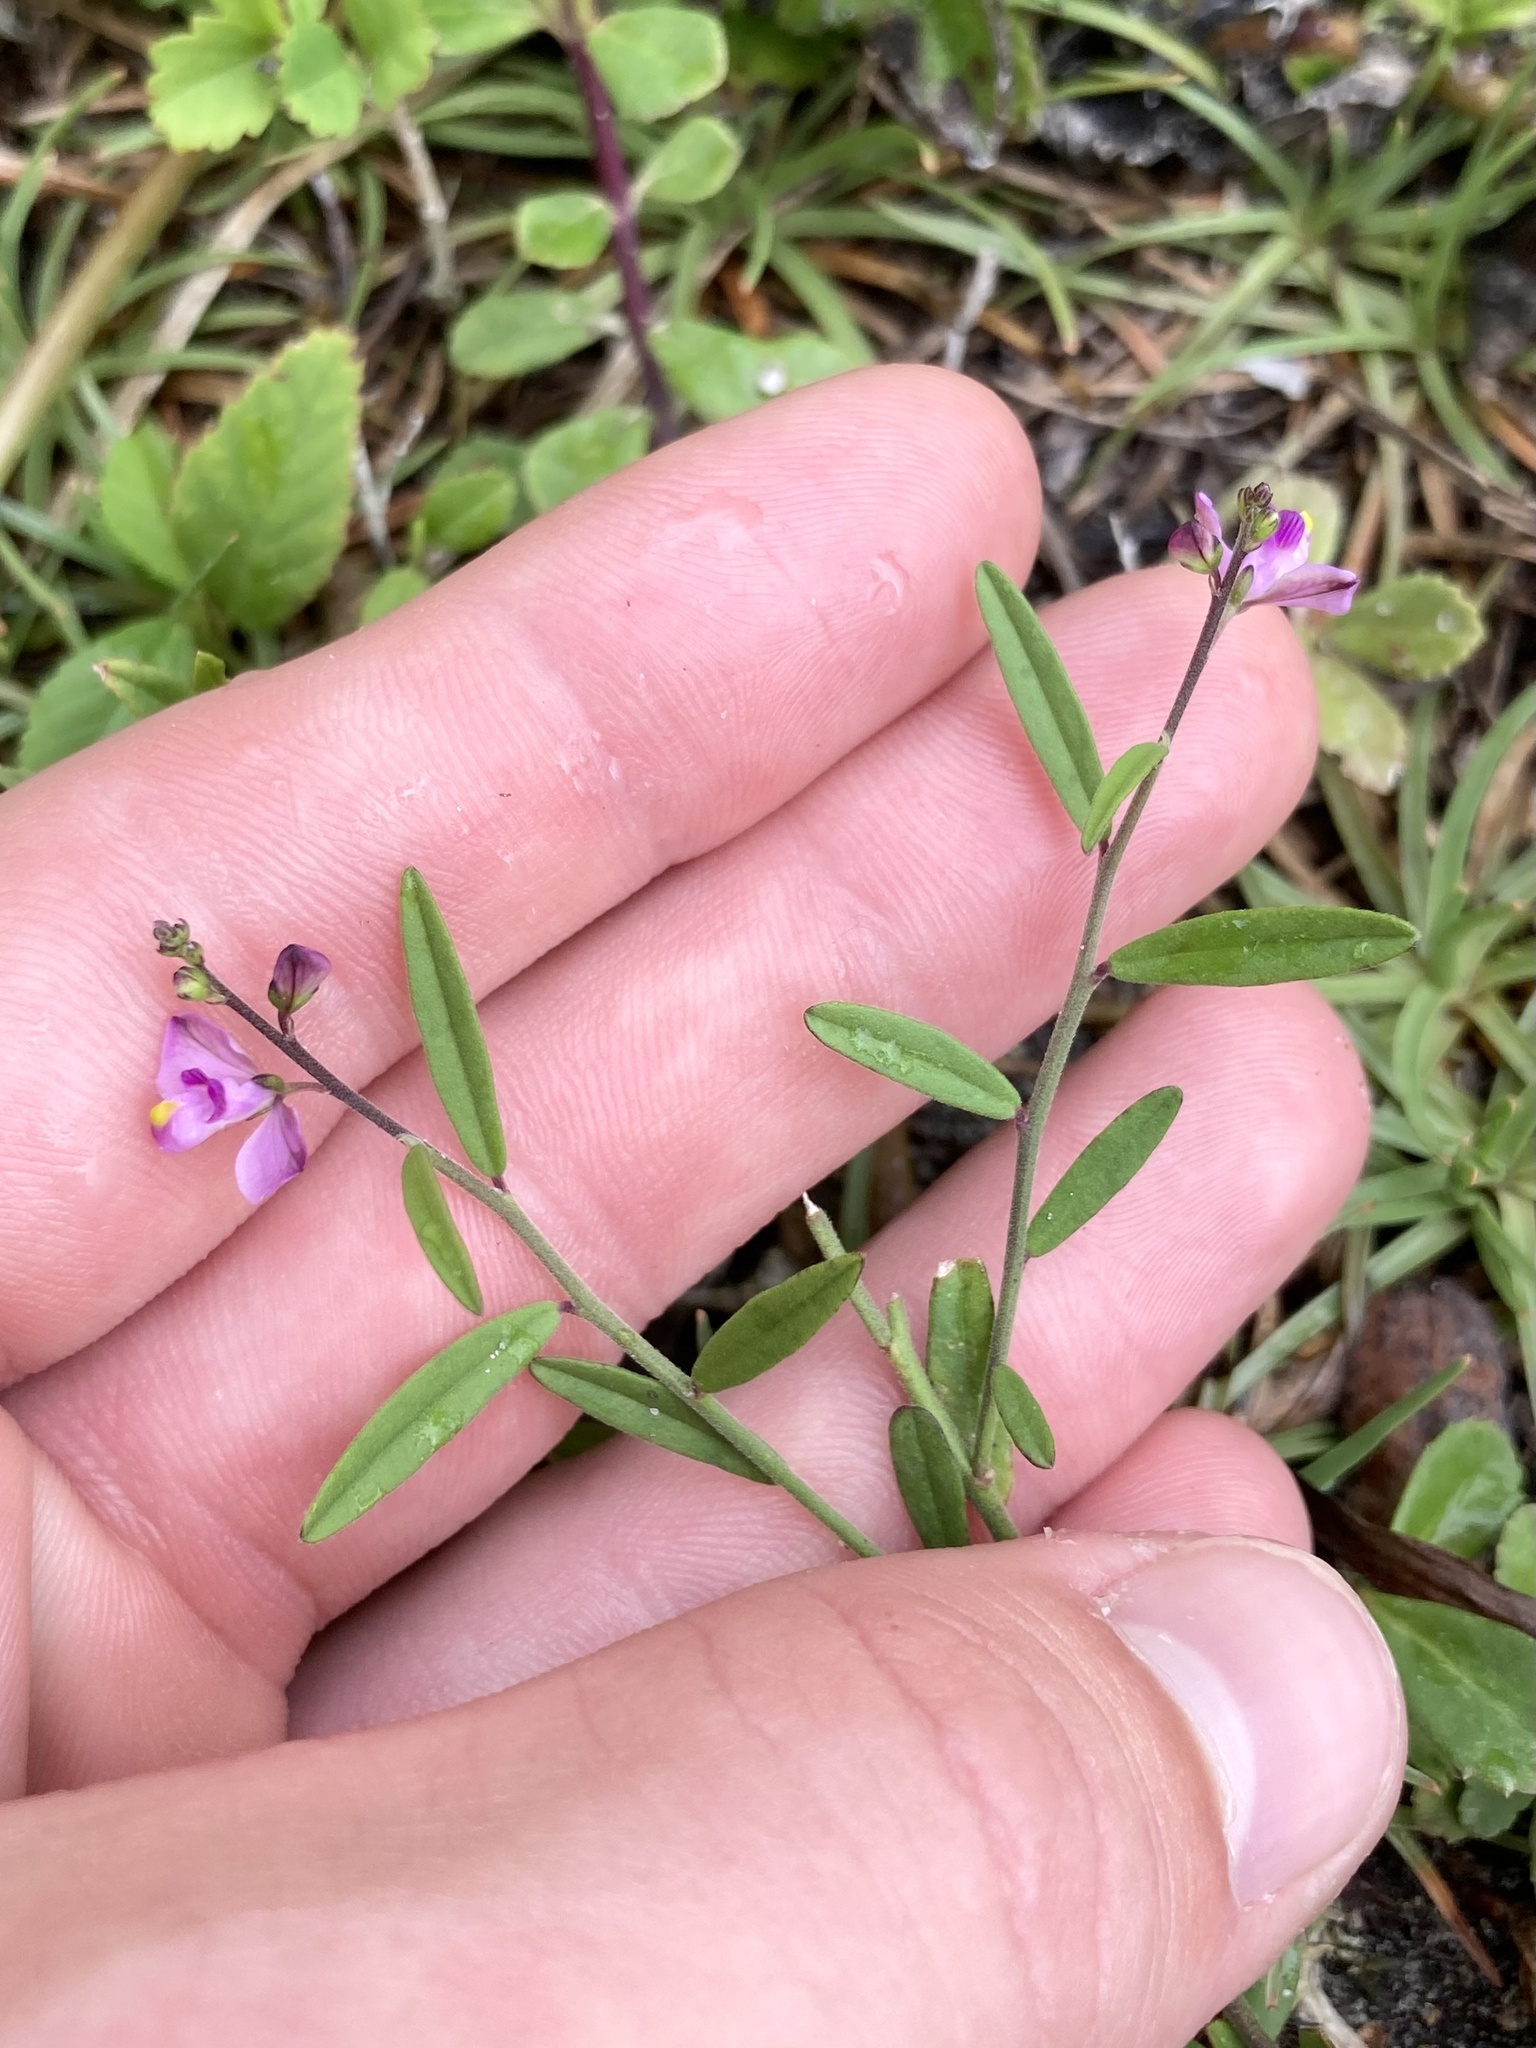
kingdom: Plantae
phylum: Tracheophyta
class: Magnoliopsida
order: Fabales
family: Polygalaceae
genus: Asemeia
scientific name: Asemeia grandiflora
